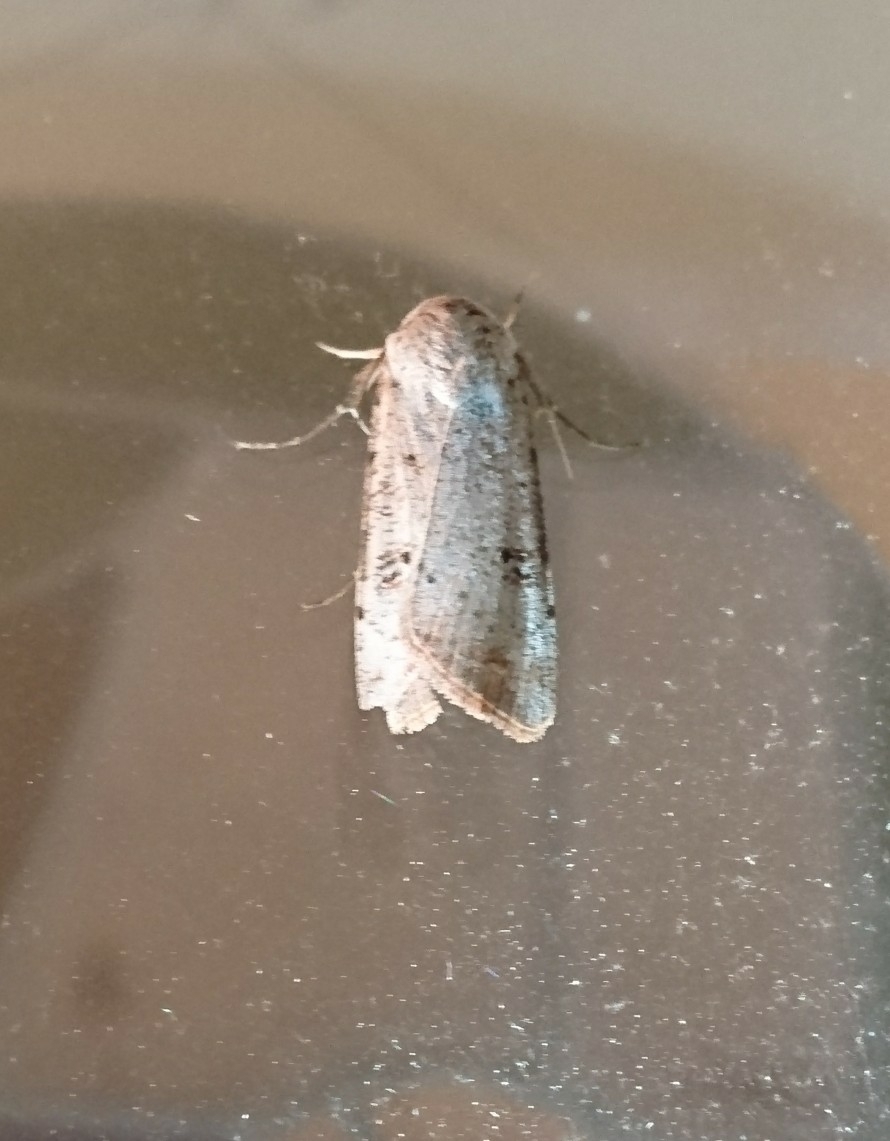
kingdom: Animalia
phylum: Arthropoda
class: Insecta
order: Lepidoptera
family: Noctuidae
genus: Anicla
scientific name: Anicla infecta
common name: Green cutworm
